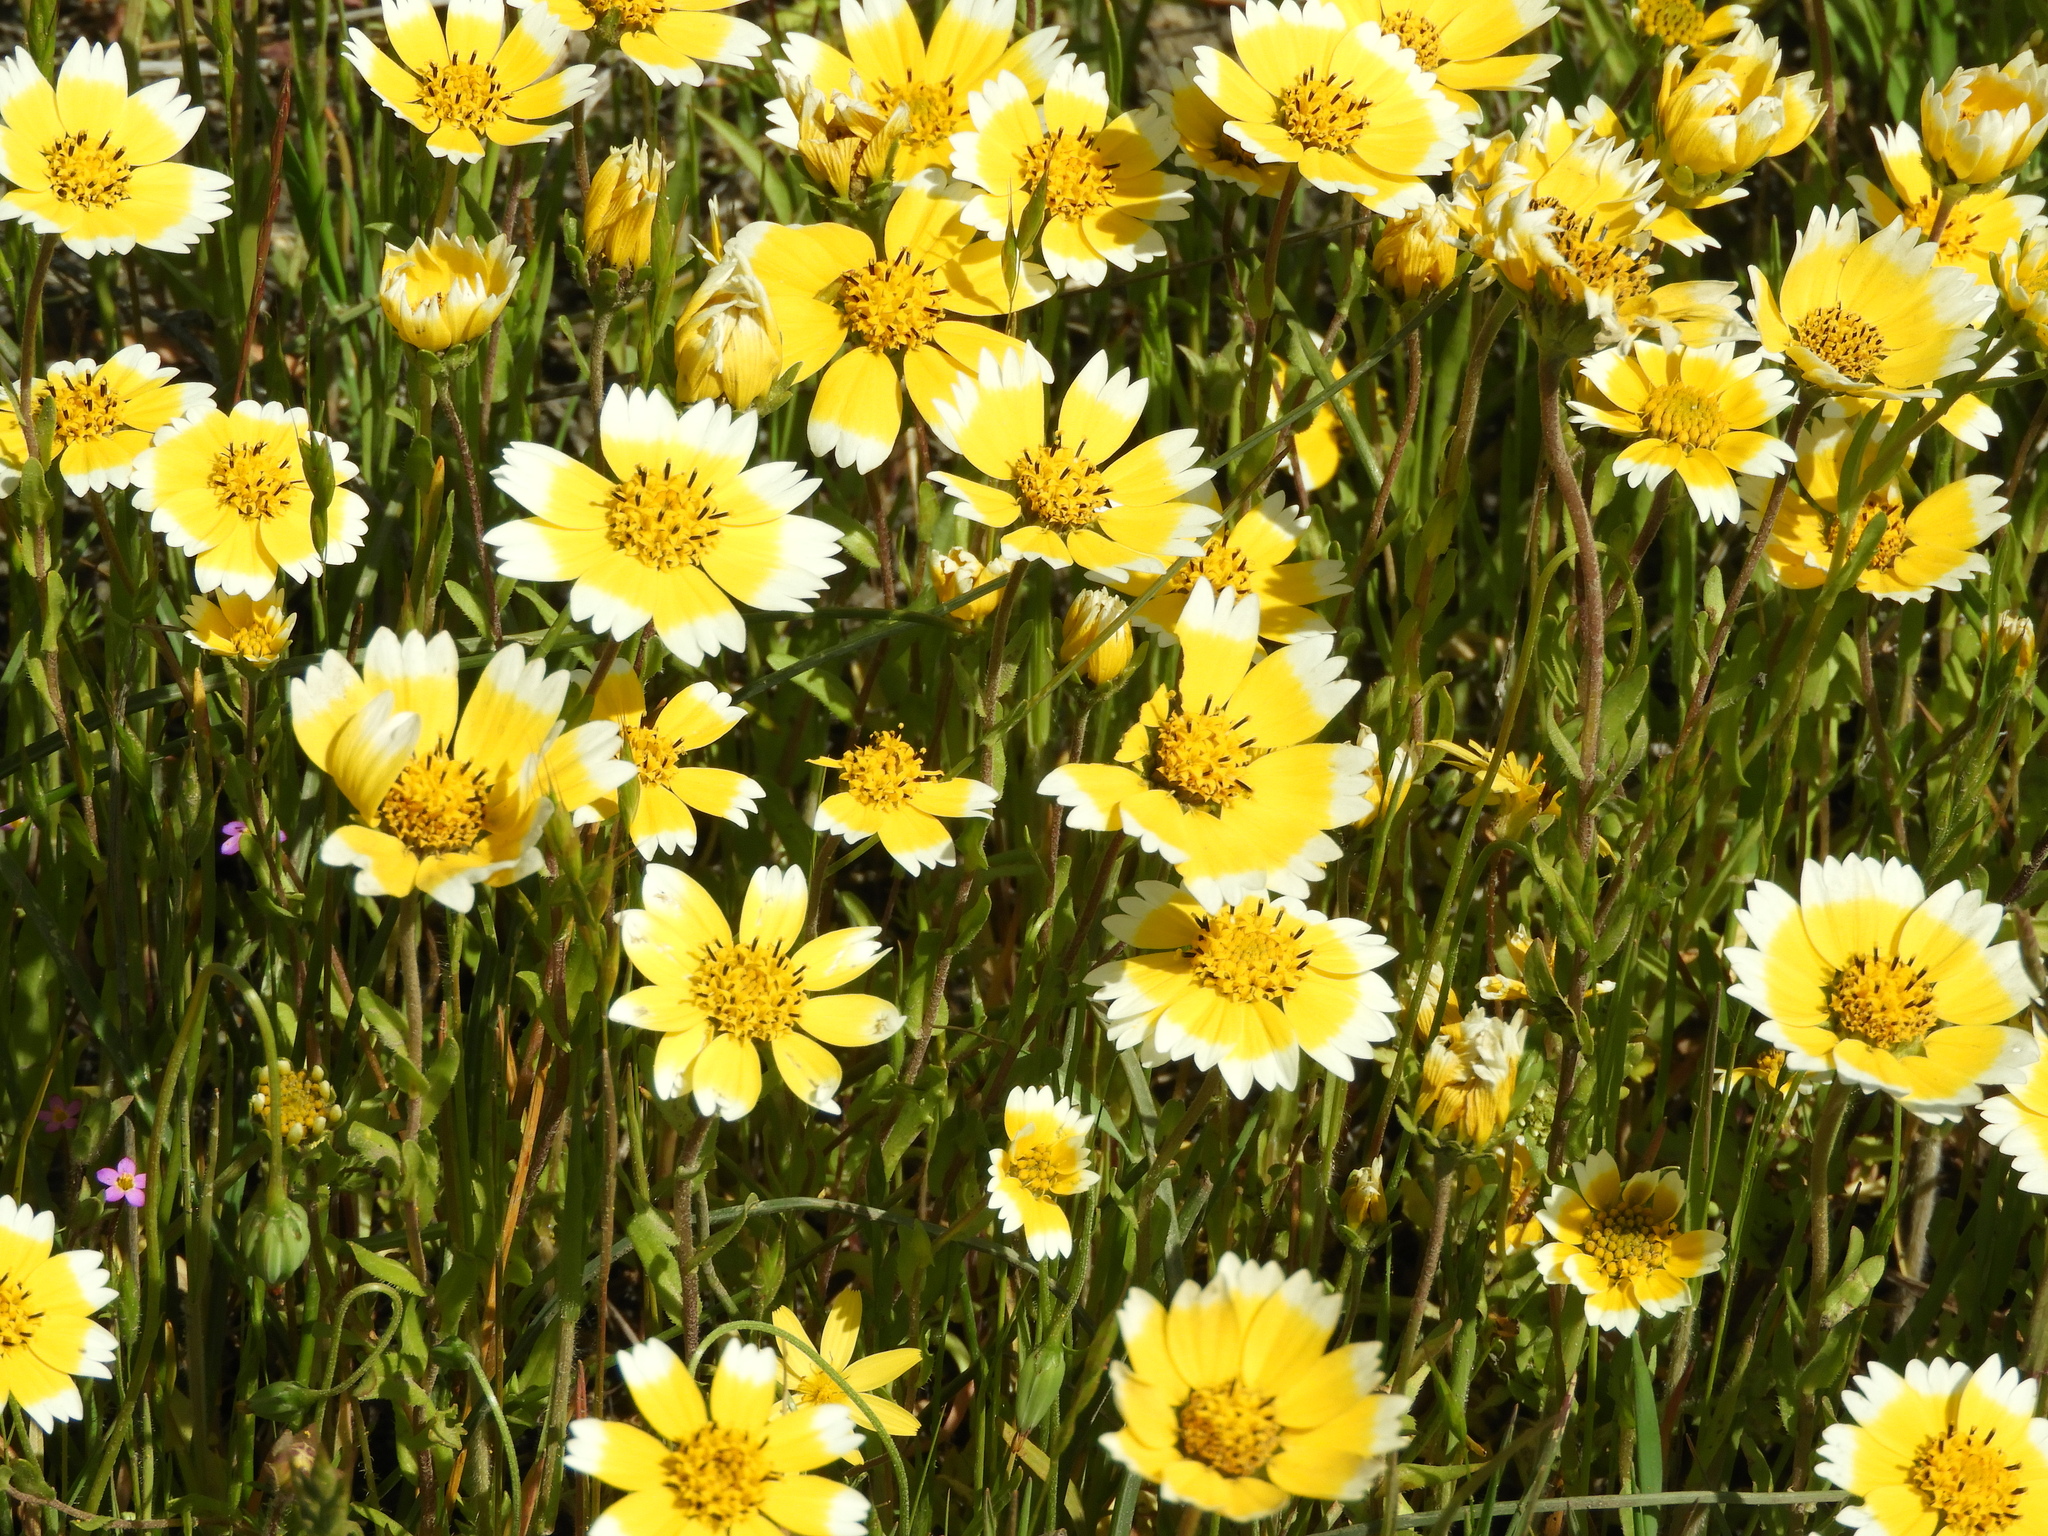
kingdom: Plantae
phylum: Tracheophyta
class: Magnoliopsida
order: Asterales
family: Asteraceae
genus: Layia
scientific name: Layia chrysanthemoides
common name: Smooth layia
